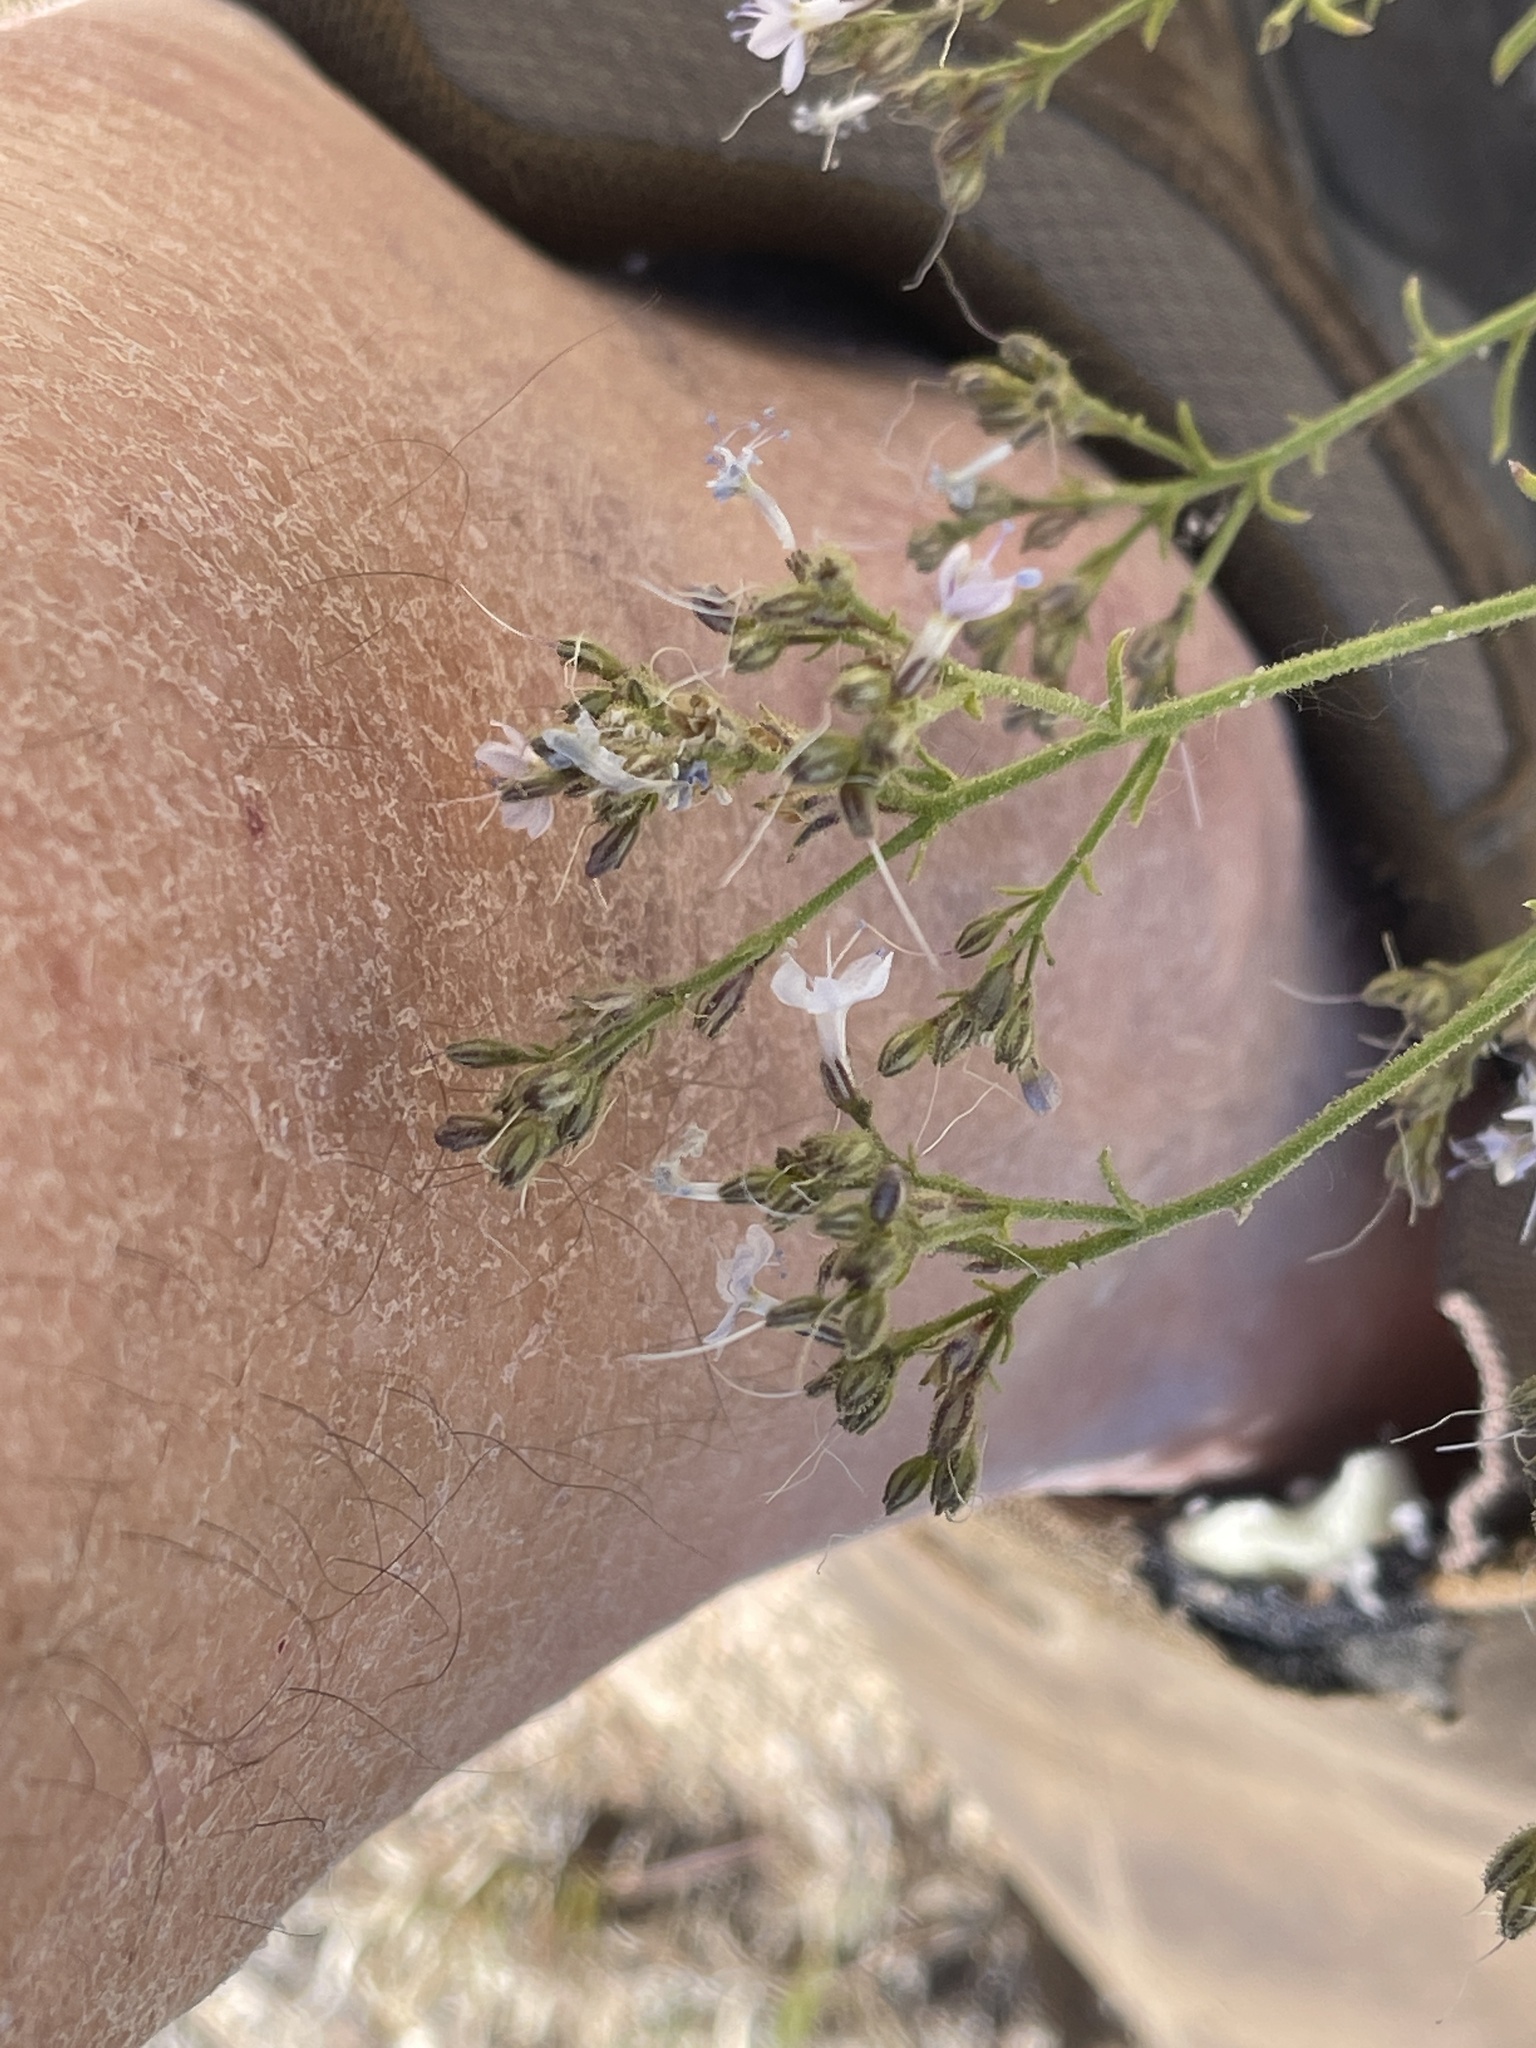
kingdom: Plantae
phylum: Tracheophyta
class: Magnoliopsida
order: Ericales
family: Polemoniaceae
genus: Aliciella
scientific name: Aliciella pinnatifida
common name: Sticky gilia
